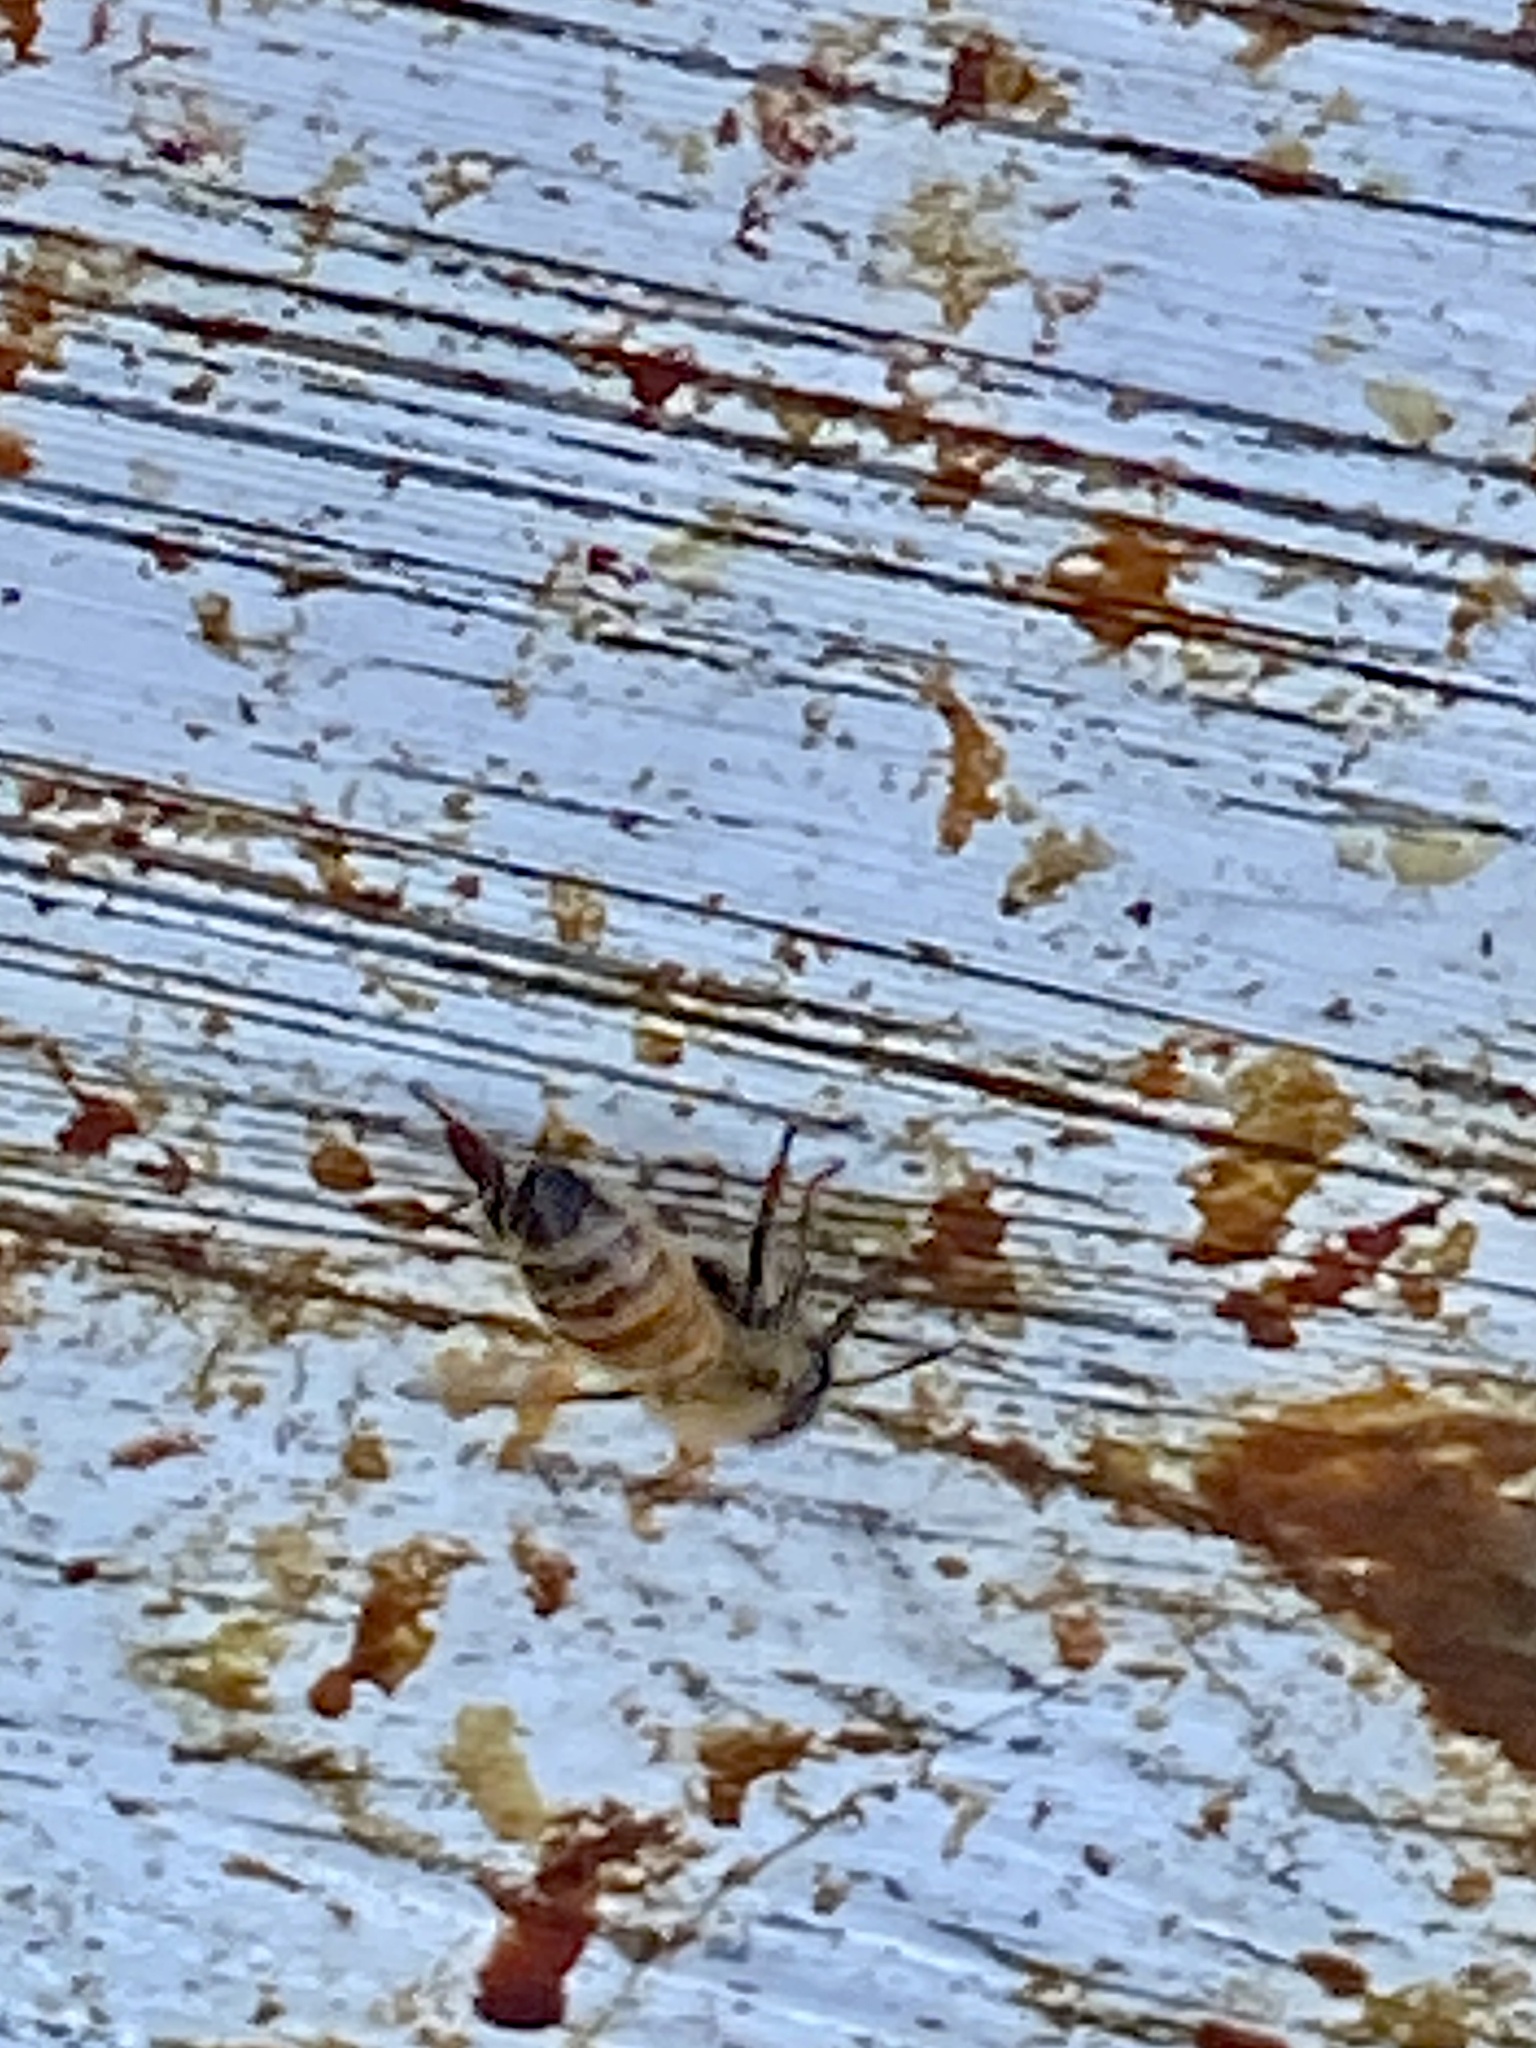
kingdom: Animalia
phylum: Arthropoda
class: Insecta
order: Hymenoptera
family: Apidae
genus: Apis
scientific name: Apis mellifera
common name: Honey bee
